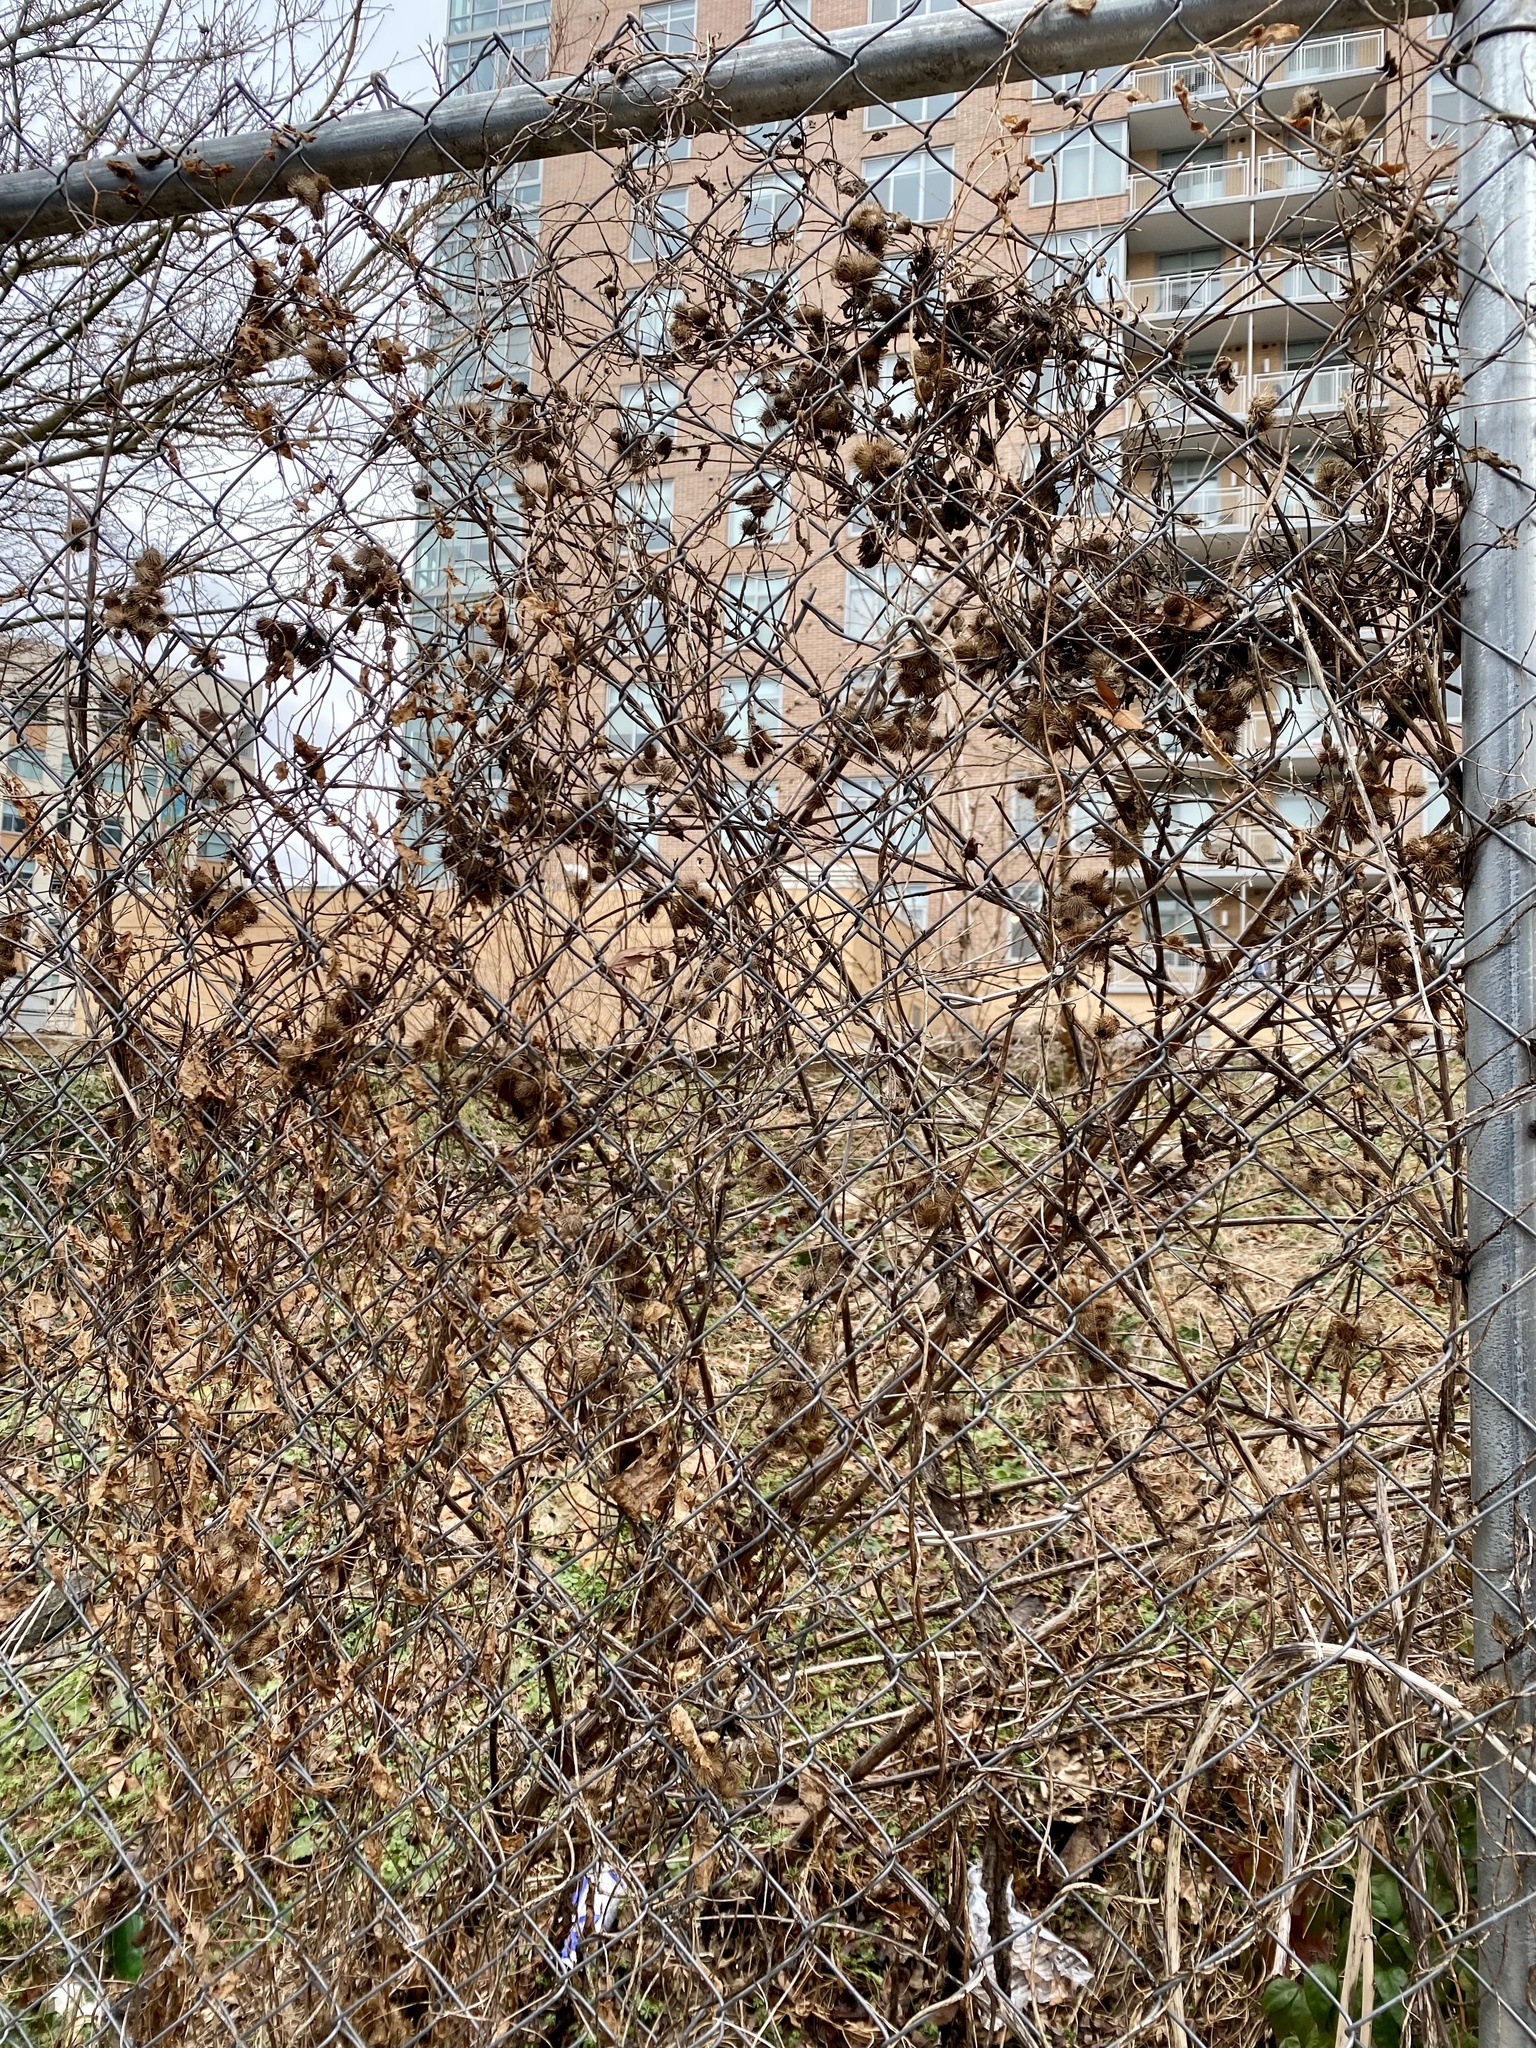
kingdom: Plantae
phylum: Tracheophyta
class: Magnoliopsida
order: Asterales
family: Asteraceae
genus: Arctium
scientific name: Arctium minus
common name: Lesser burdock
